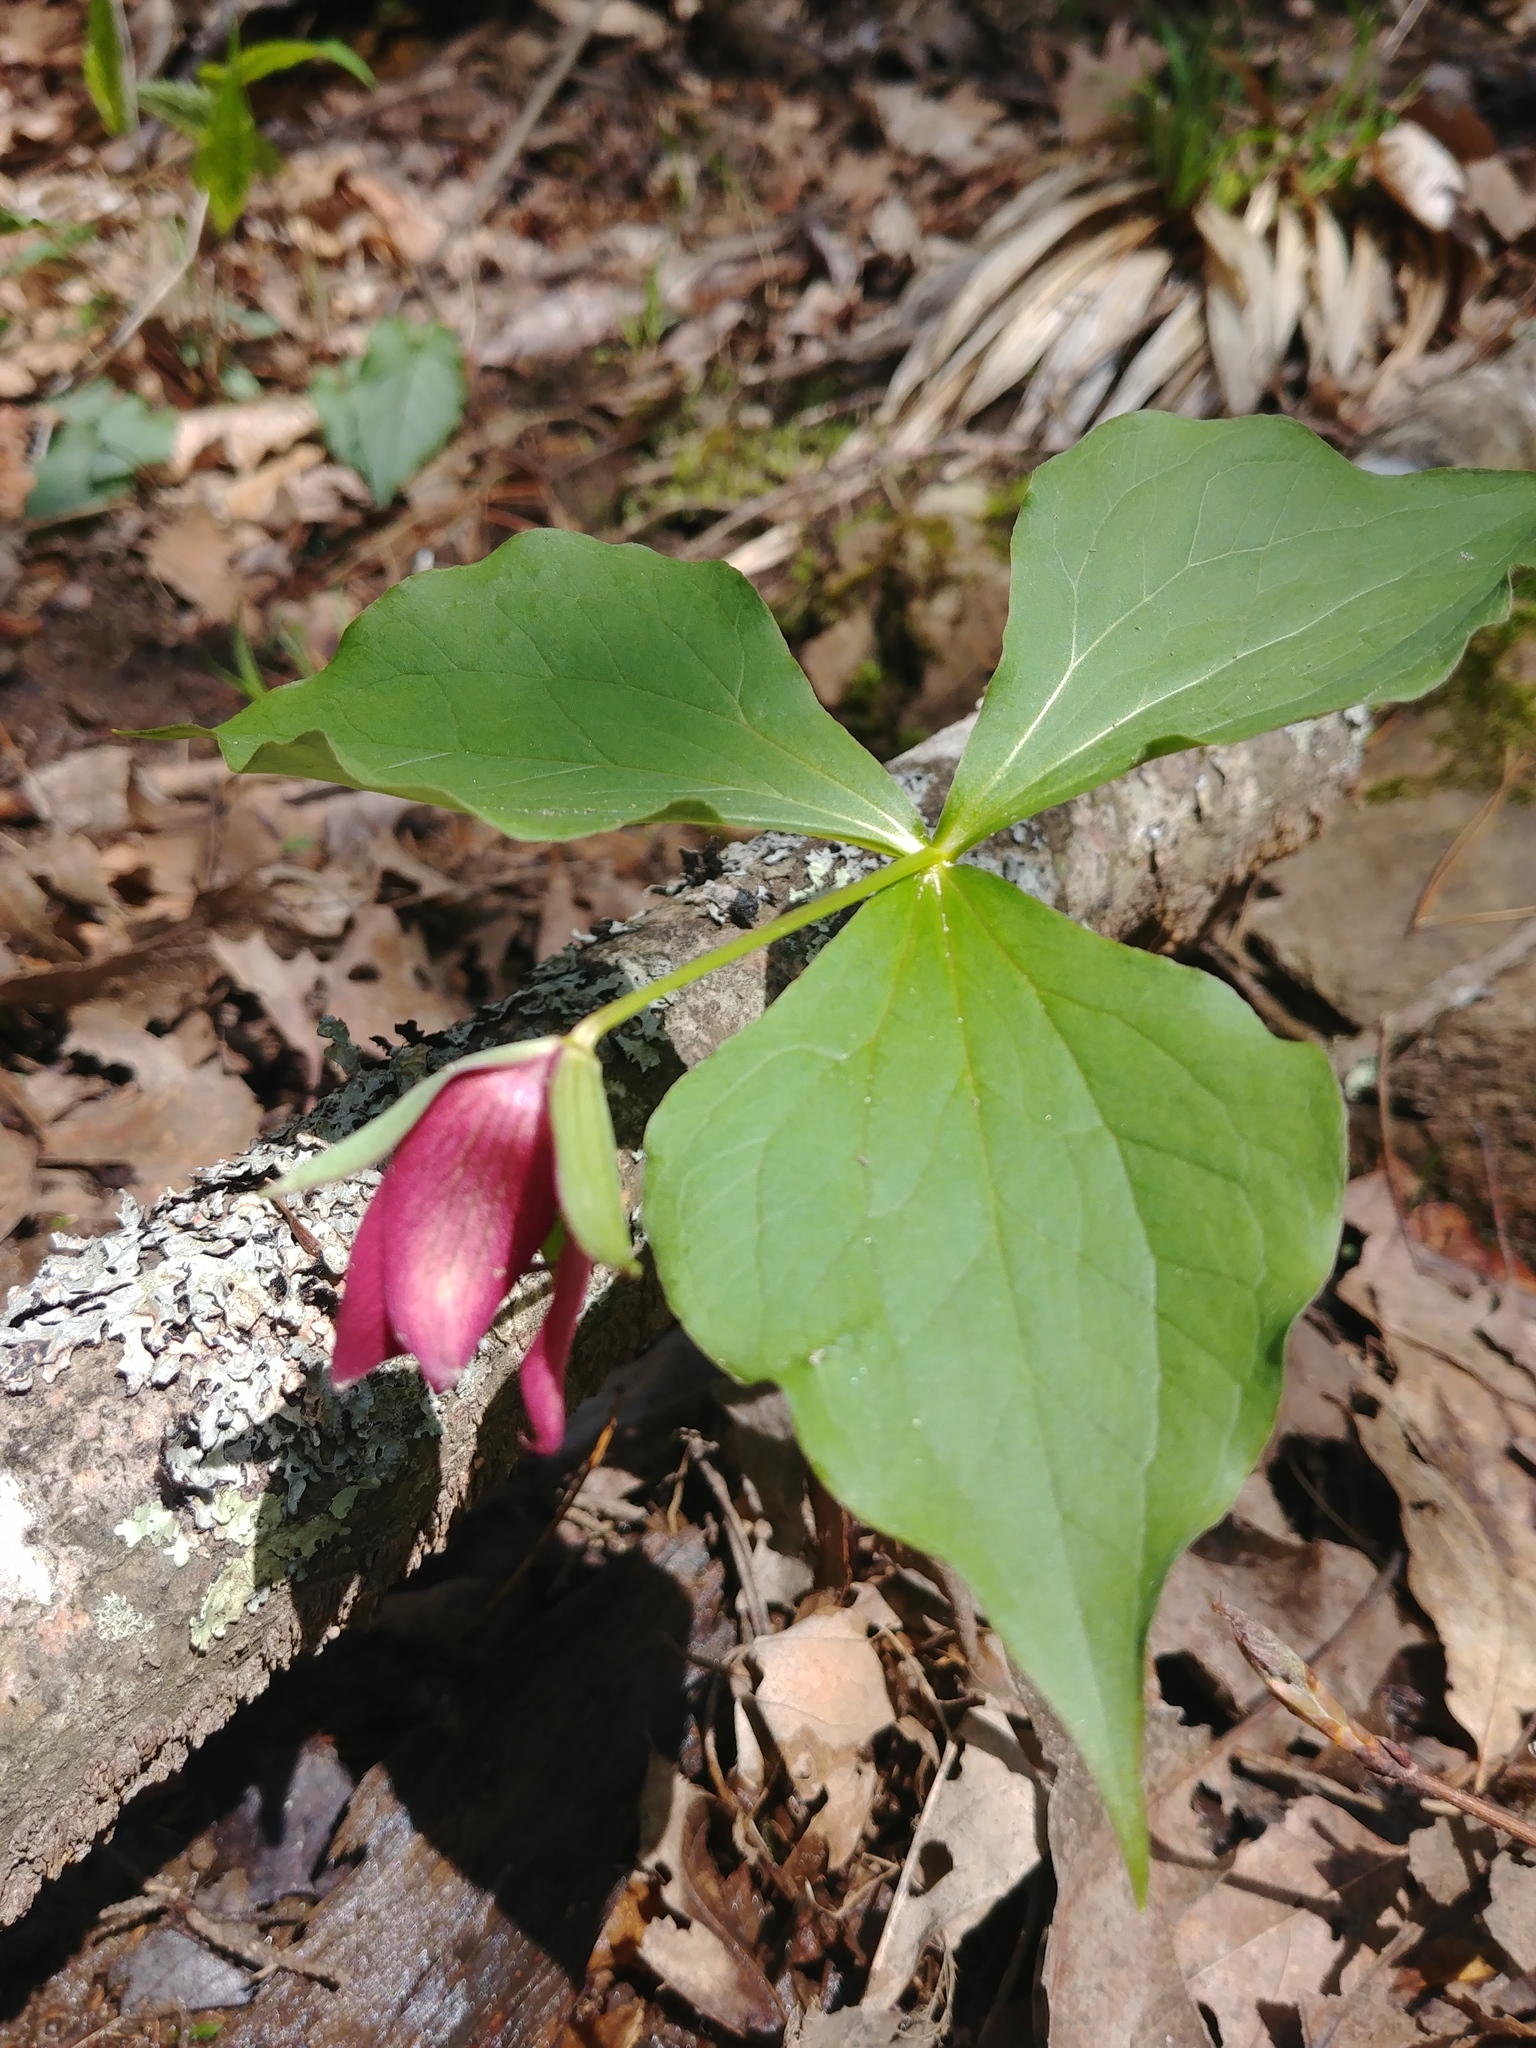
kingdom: Plantae
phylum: Tracheophyta
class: Liliopsida
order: Liliales
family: Melanthiaceae
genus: Trillium
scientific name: Trillium erectum
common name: Purple trillium
